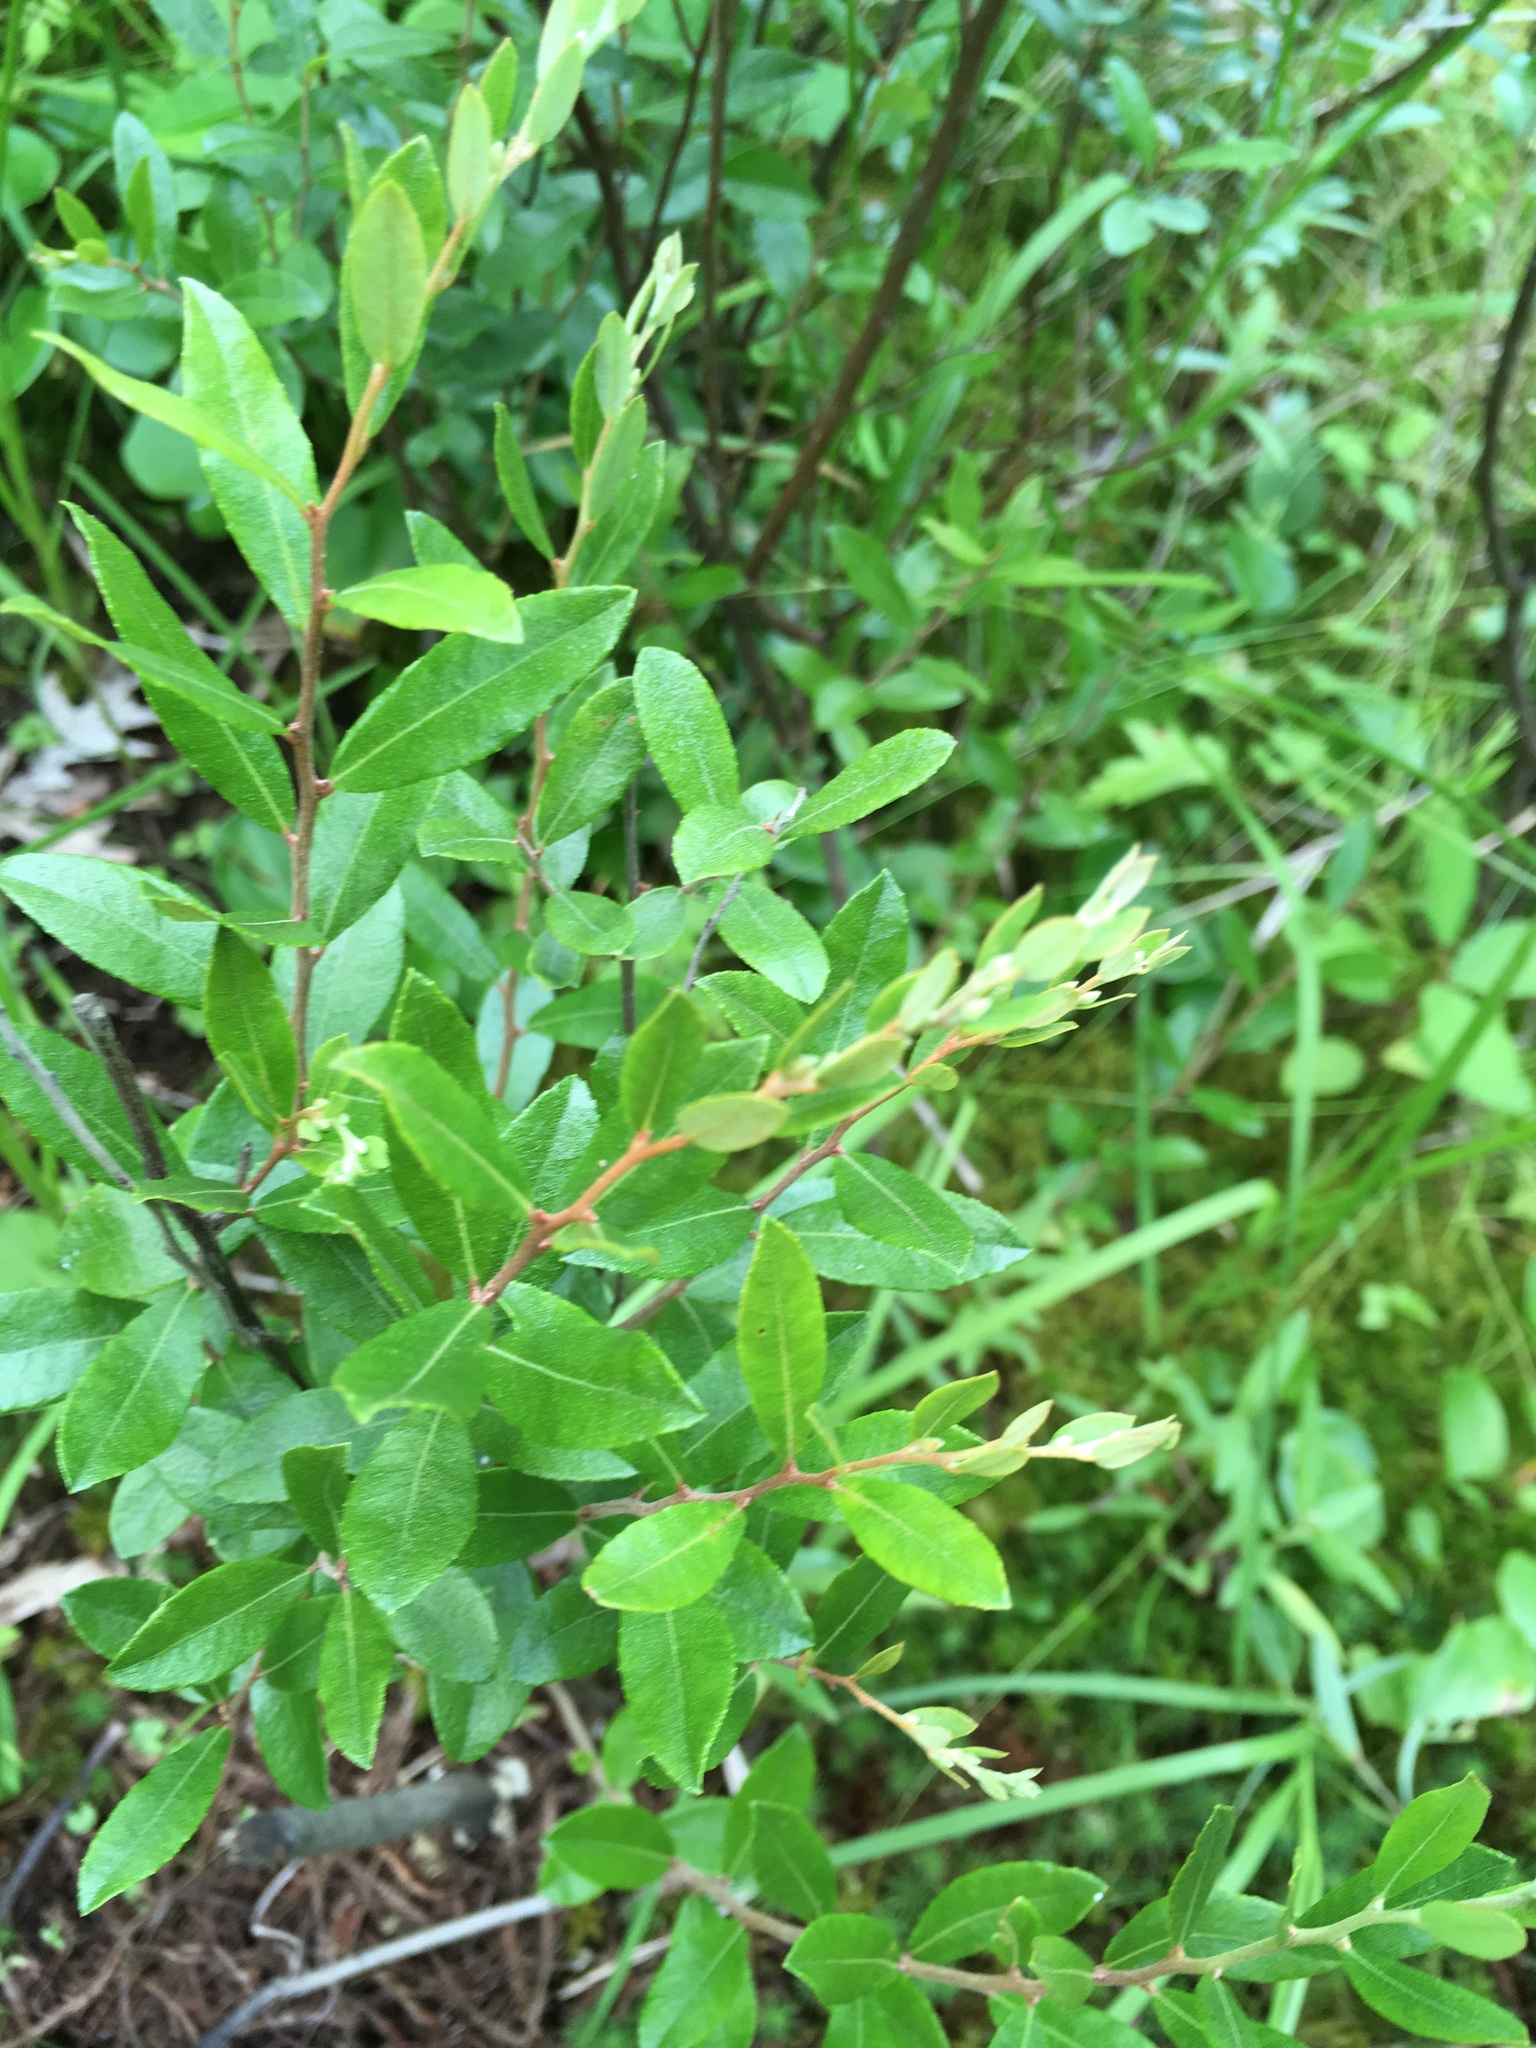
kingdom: Plantae
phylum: Tracheophyta
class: Magnoliopsida
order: Ericales
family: Ericaceae
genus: Chamaedaphne
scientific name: Chamaedaphne calyculata
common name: Leatherleaf
